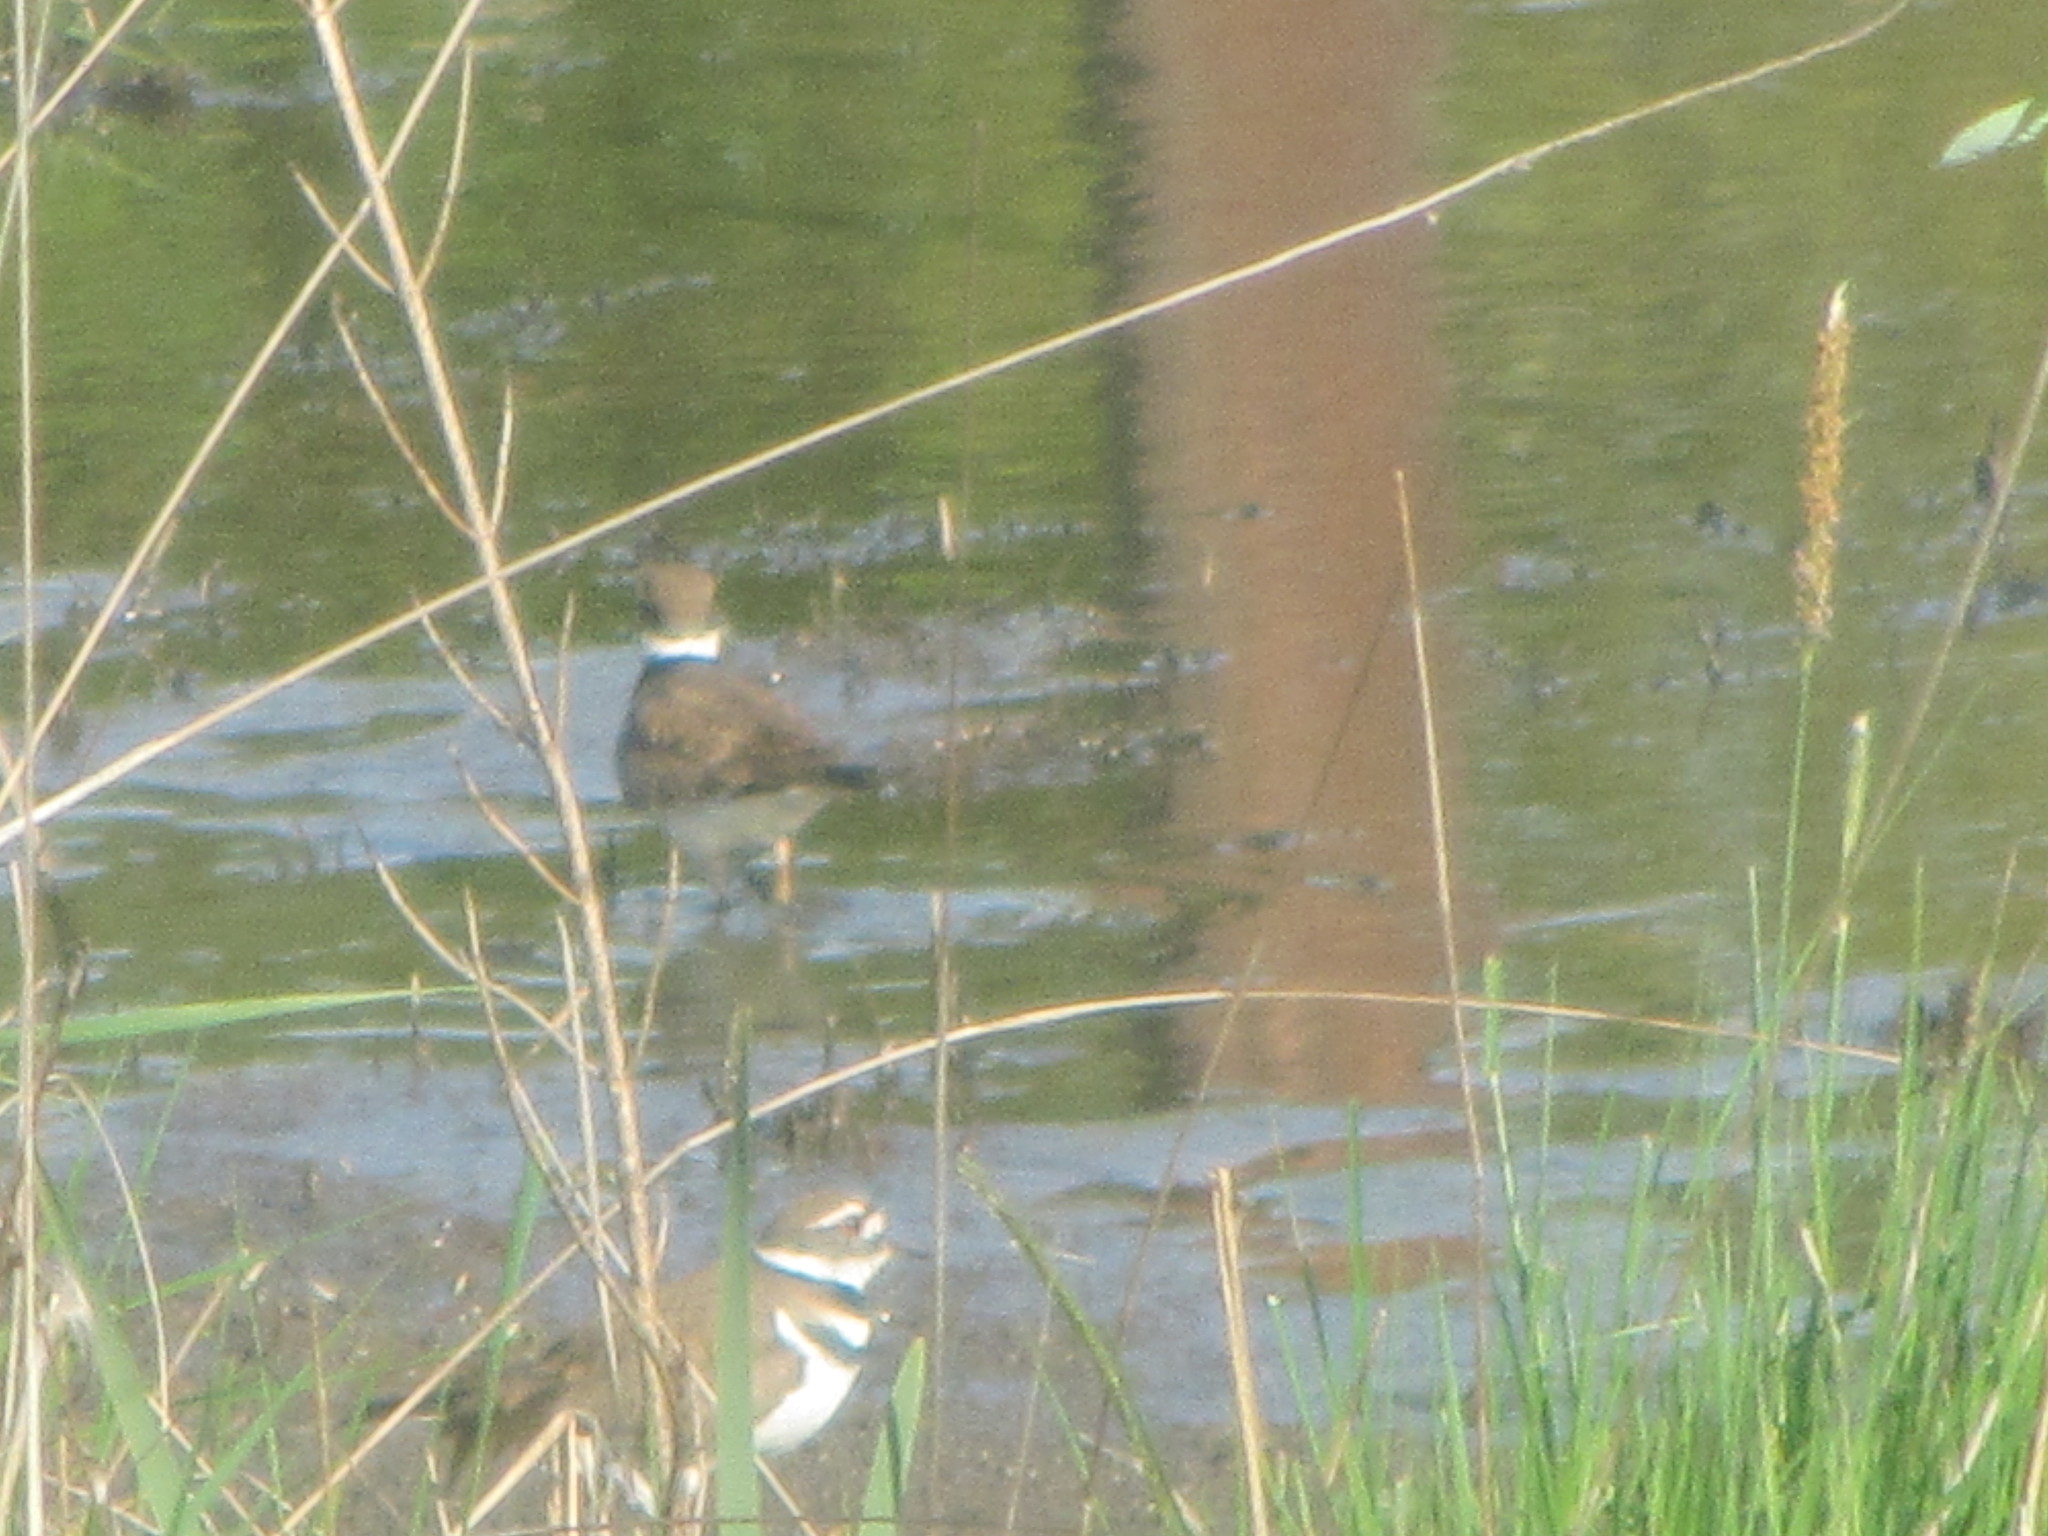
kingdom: Animalia
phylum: Chordata
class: Aves
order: Charadriiformes
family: Charadriidae
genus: Charadrius
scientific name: Charadrius vociferus
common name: Killdeer
